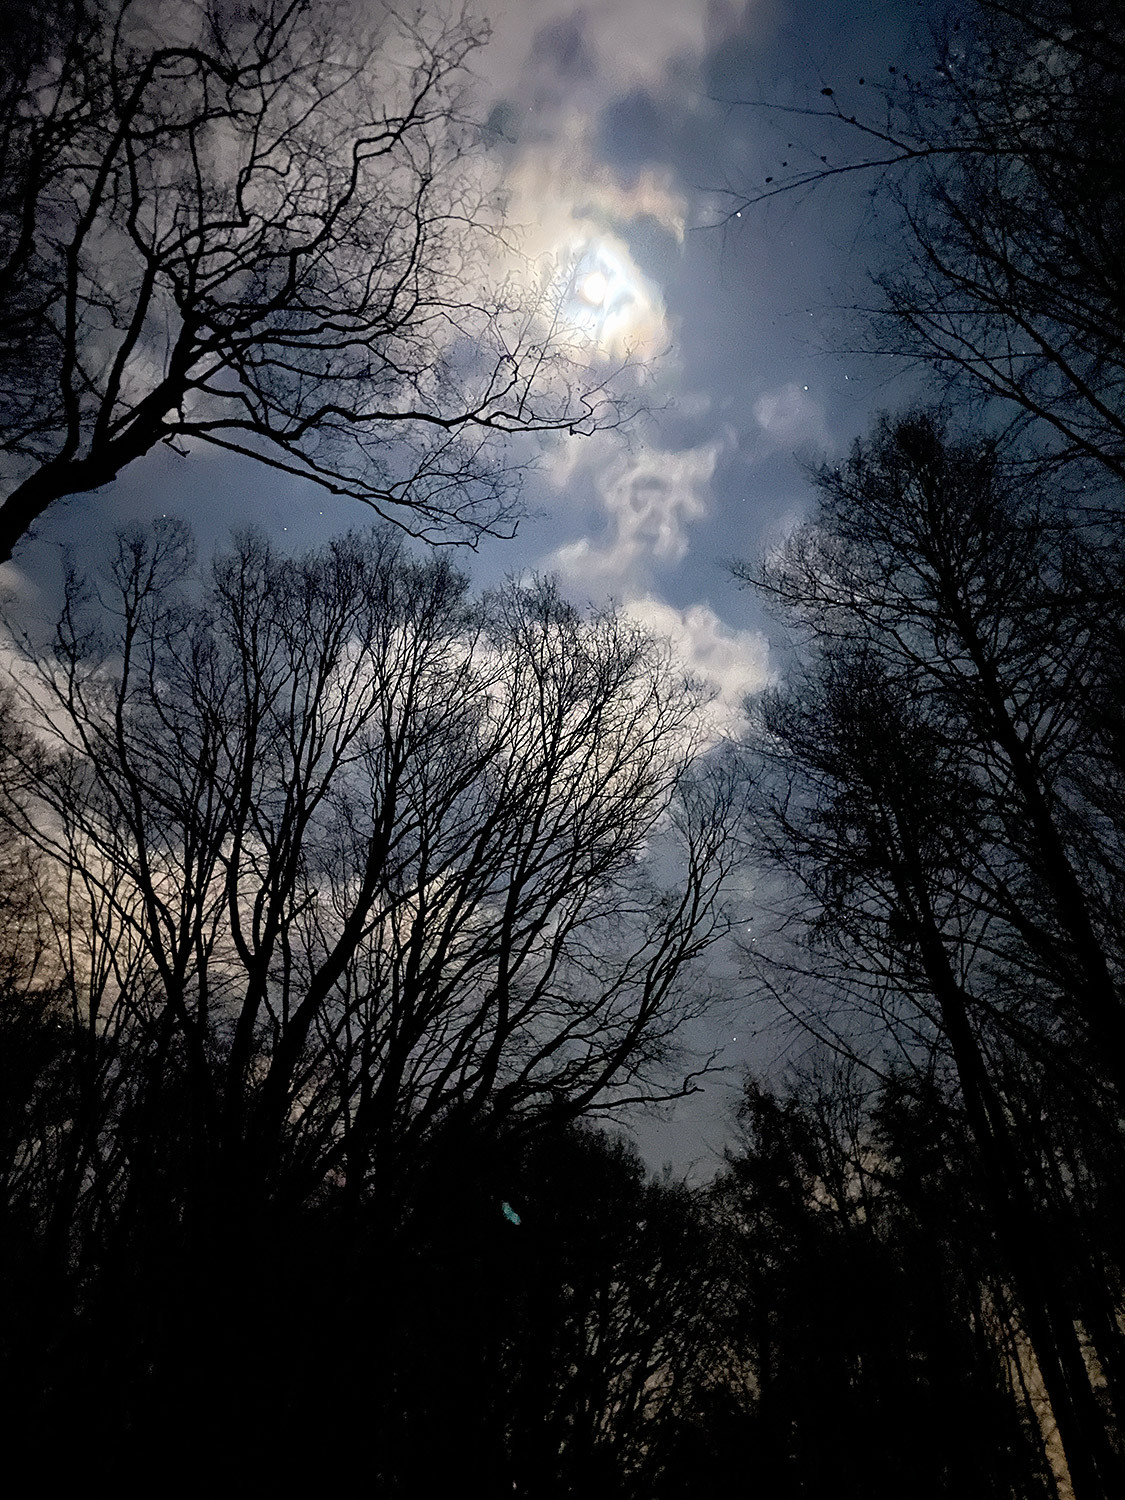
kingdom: Animalia
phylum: Chordata
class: Aves
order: Strigiformes
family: Strigidae
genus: Strix
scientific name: Strix aluco
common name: Tawny owl
